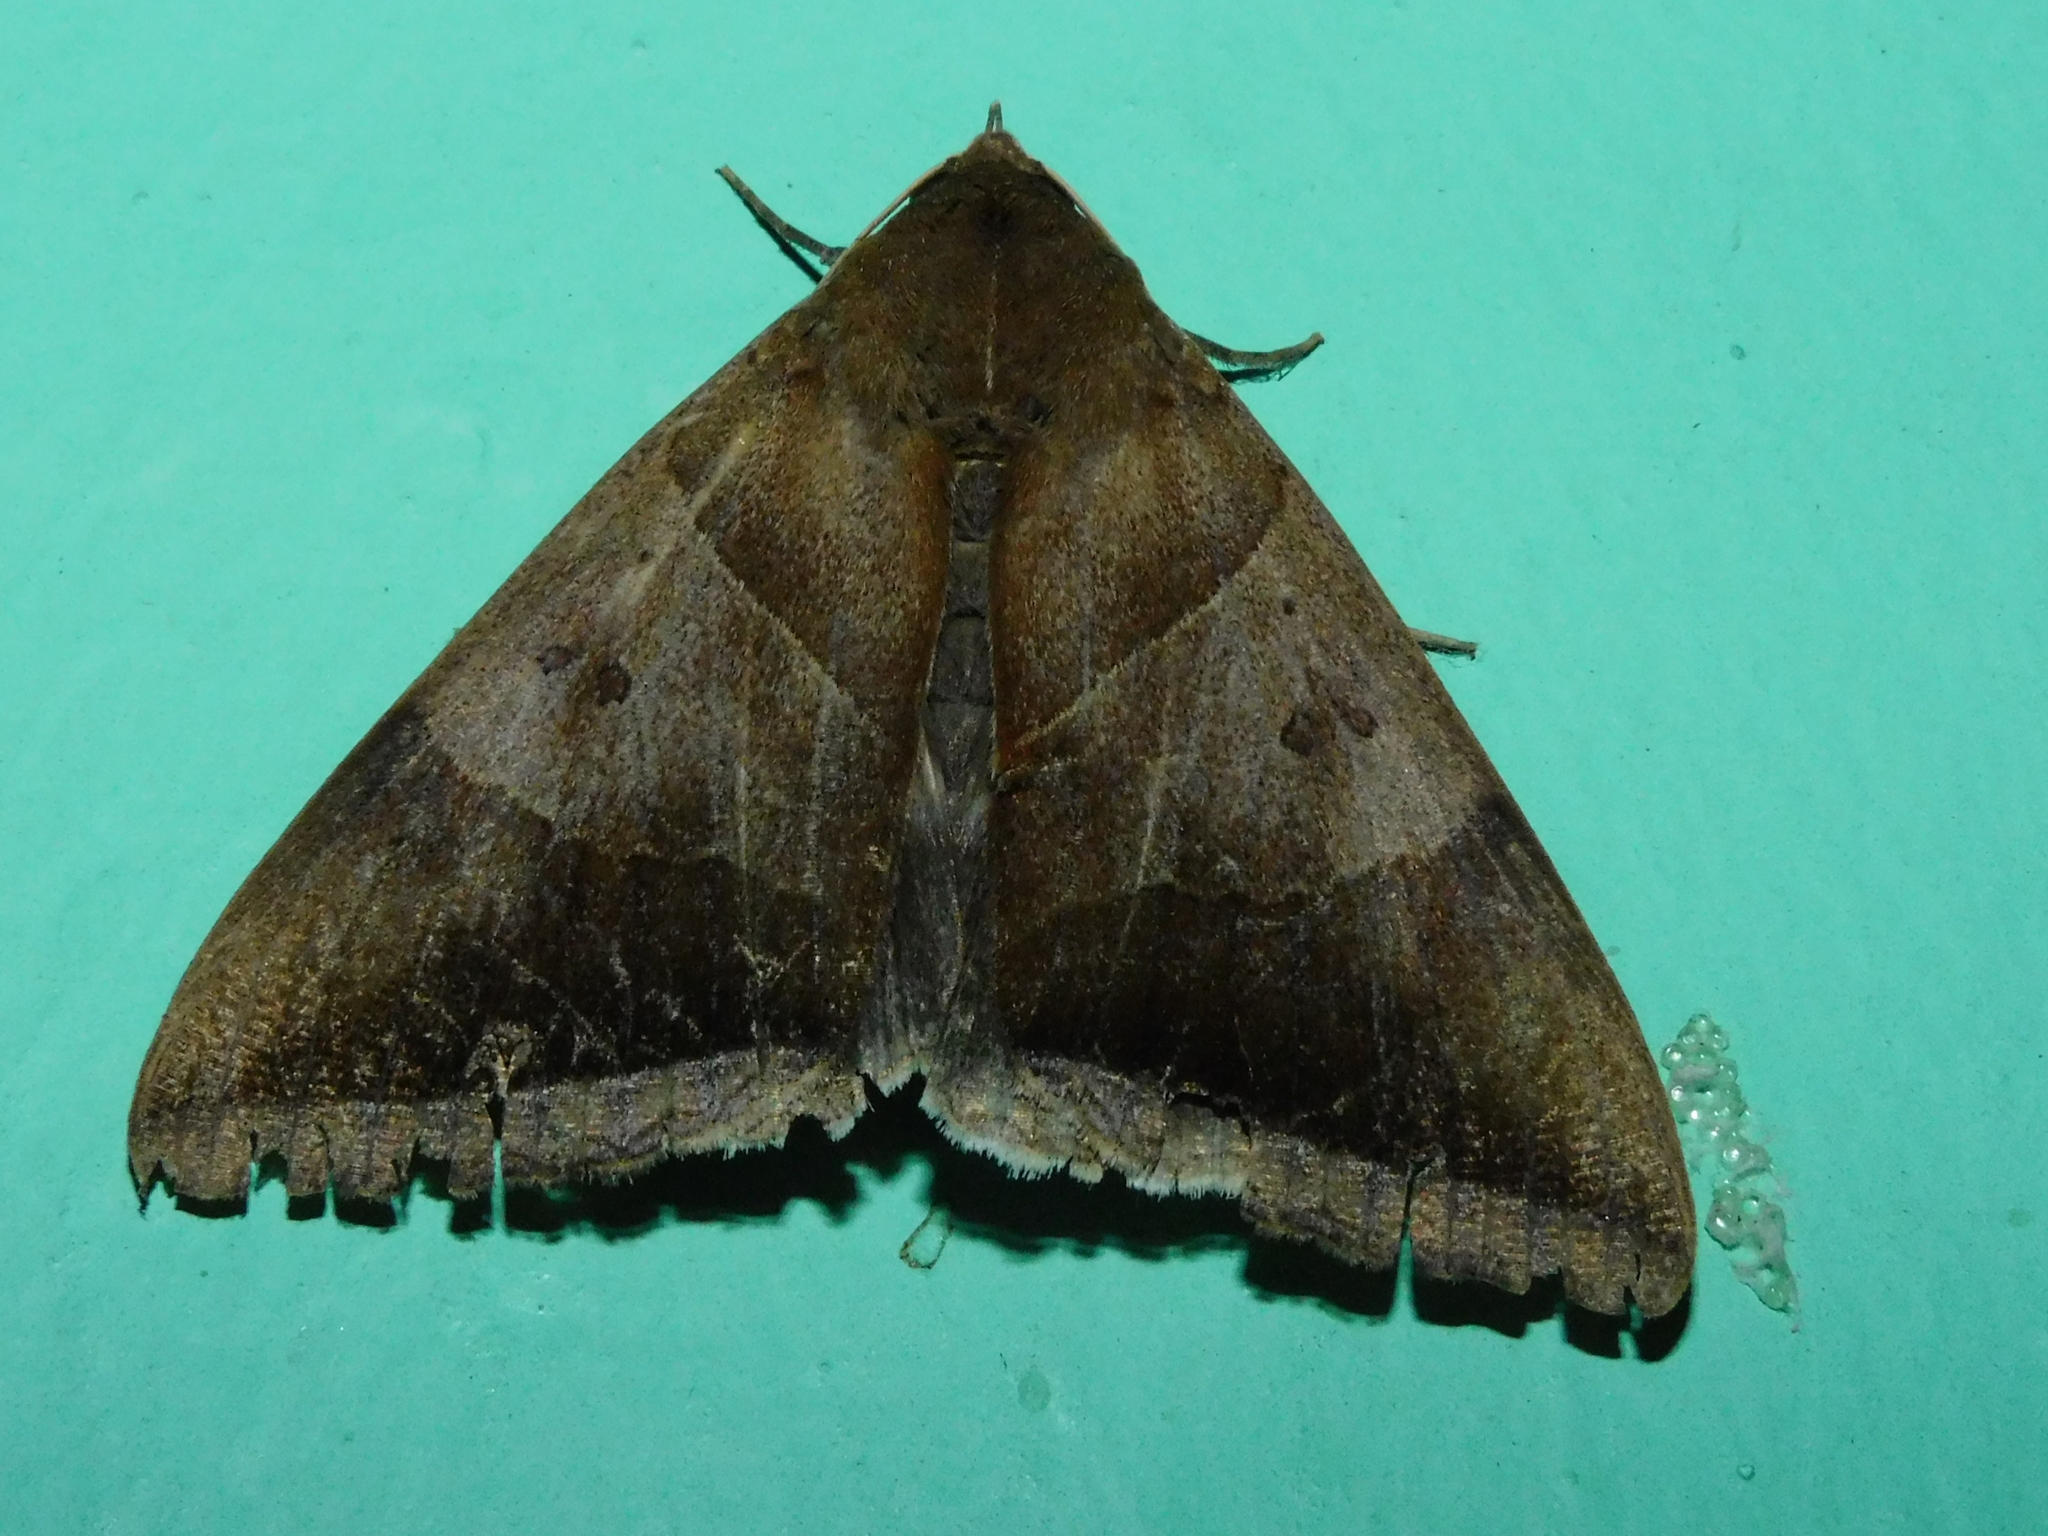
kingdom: Animalia
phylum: Arthropoda
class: Insecta
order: Lepidoptera
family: Erebidae
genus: Artena
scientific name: Artena dotata
